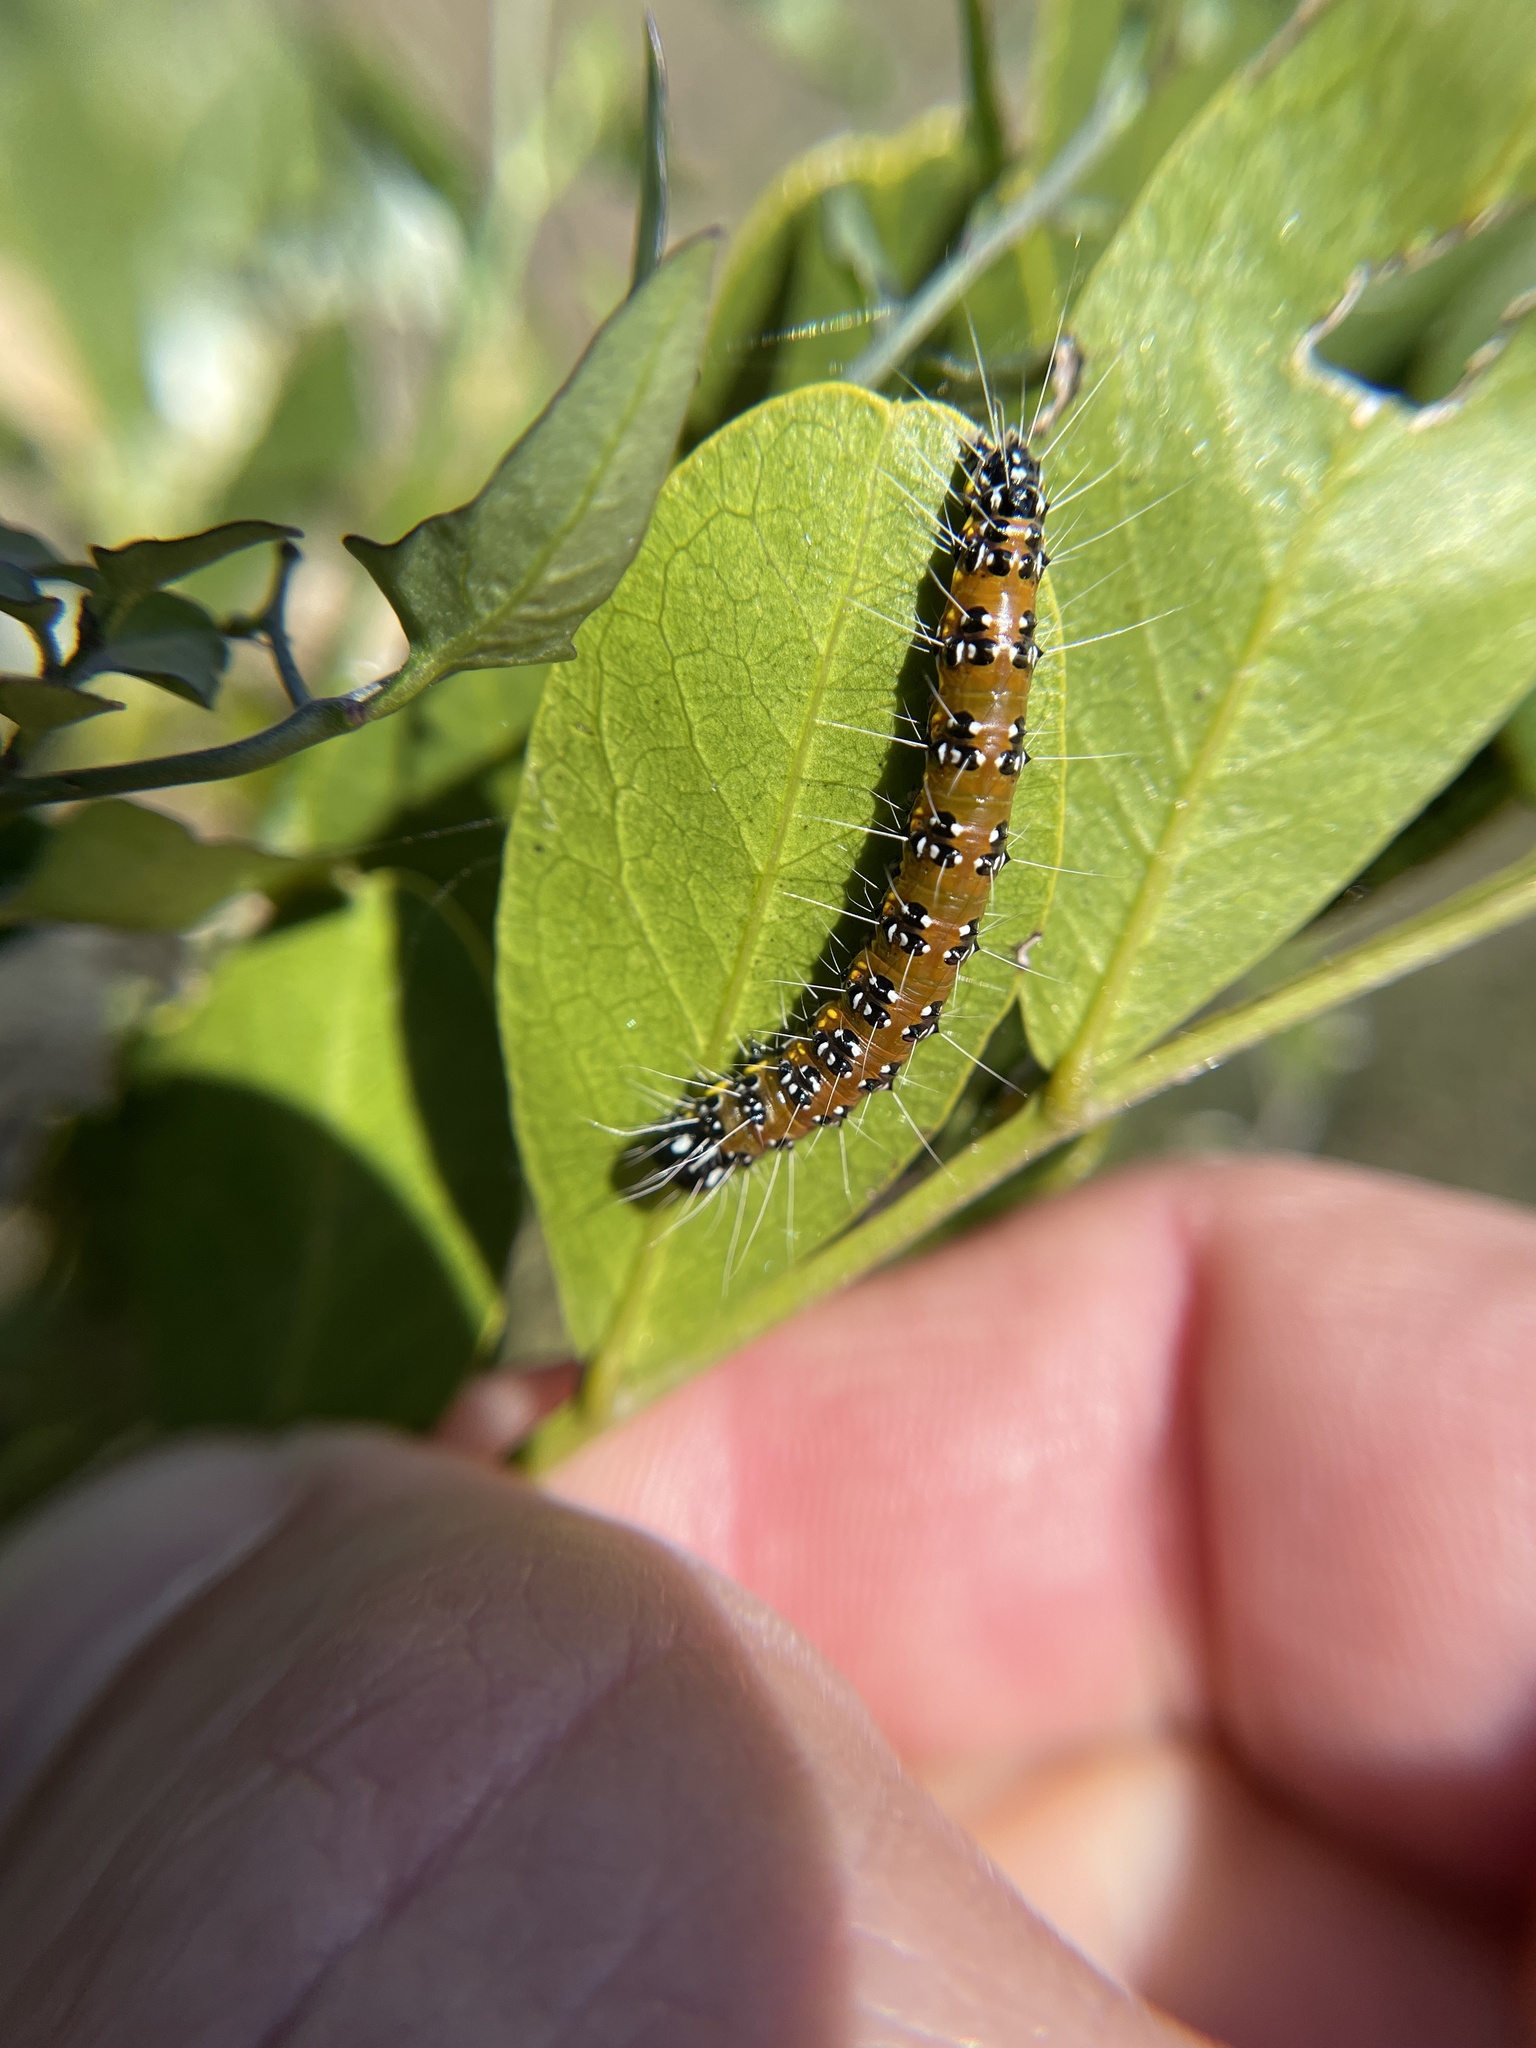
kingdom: Animalia
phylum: Arthropoda
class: Insecta
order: Lepidoptera
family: Crambidae
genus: Uresiphita
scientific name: Uresiphita reversalis
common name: Genista broom moth
